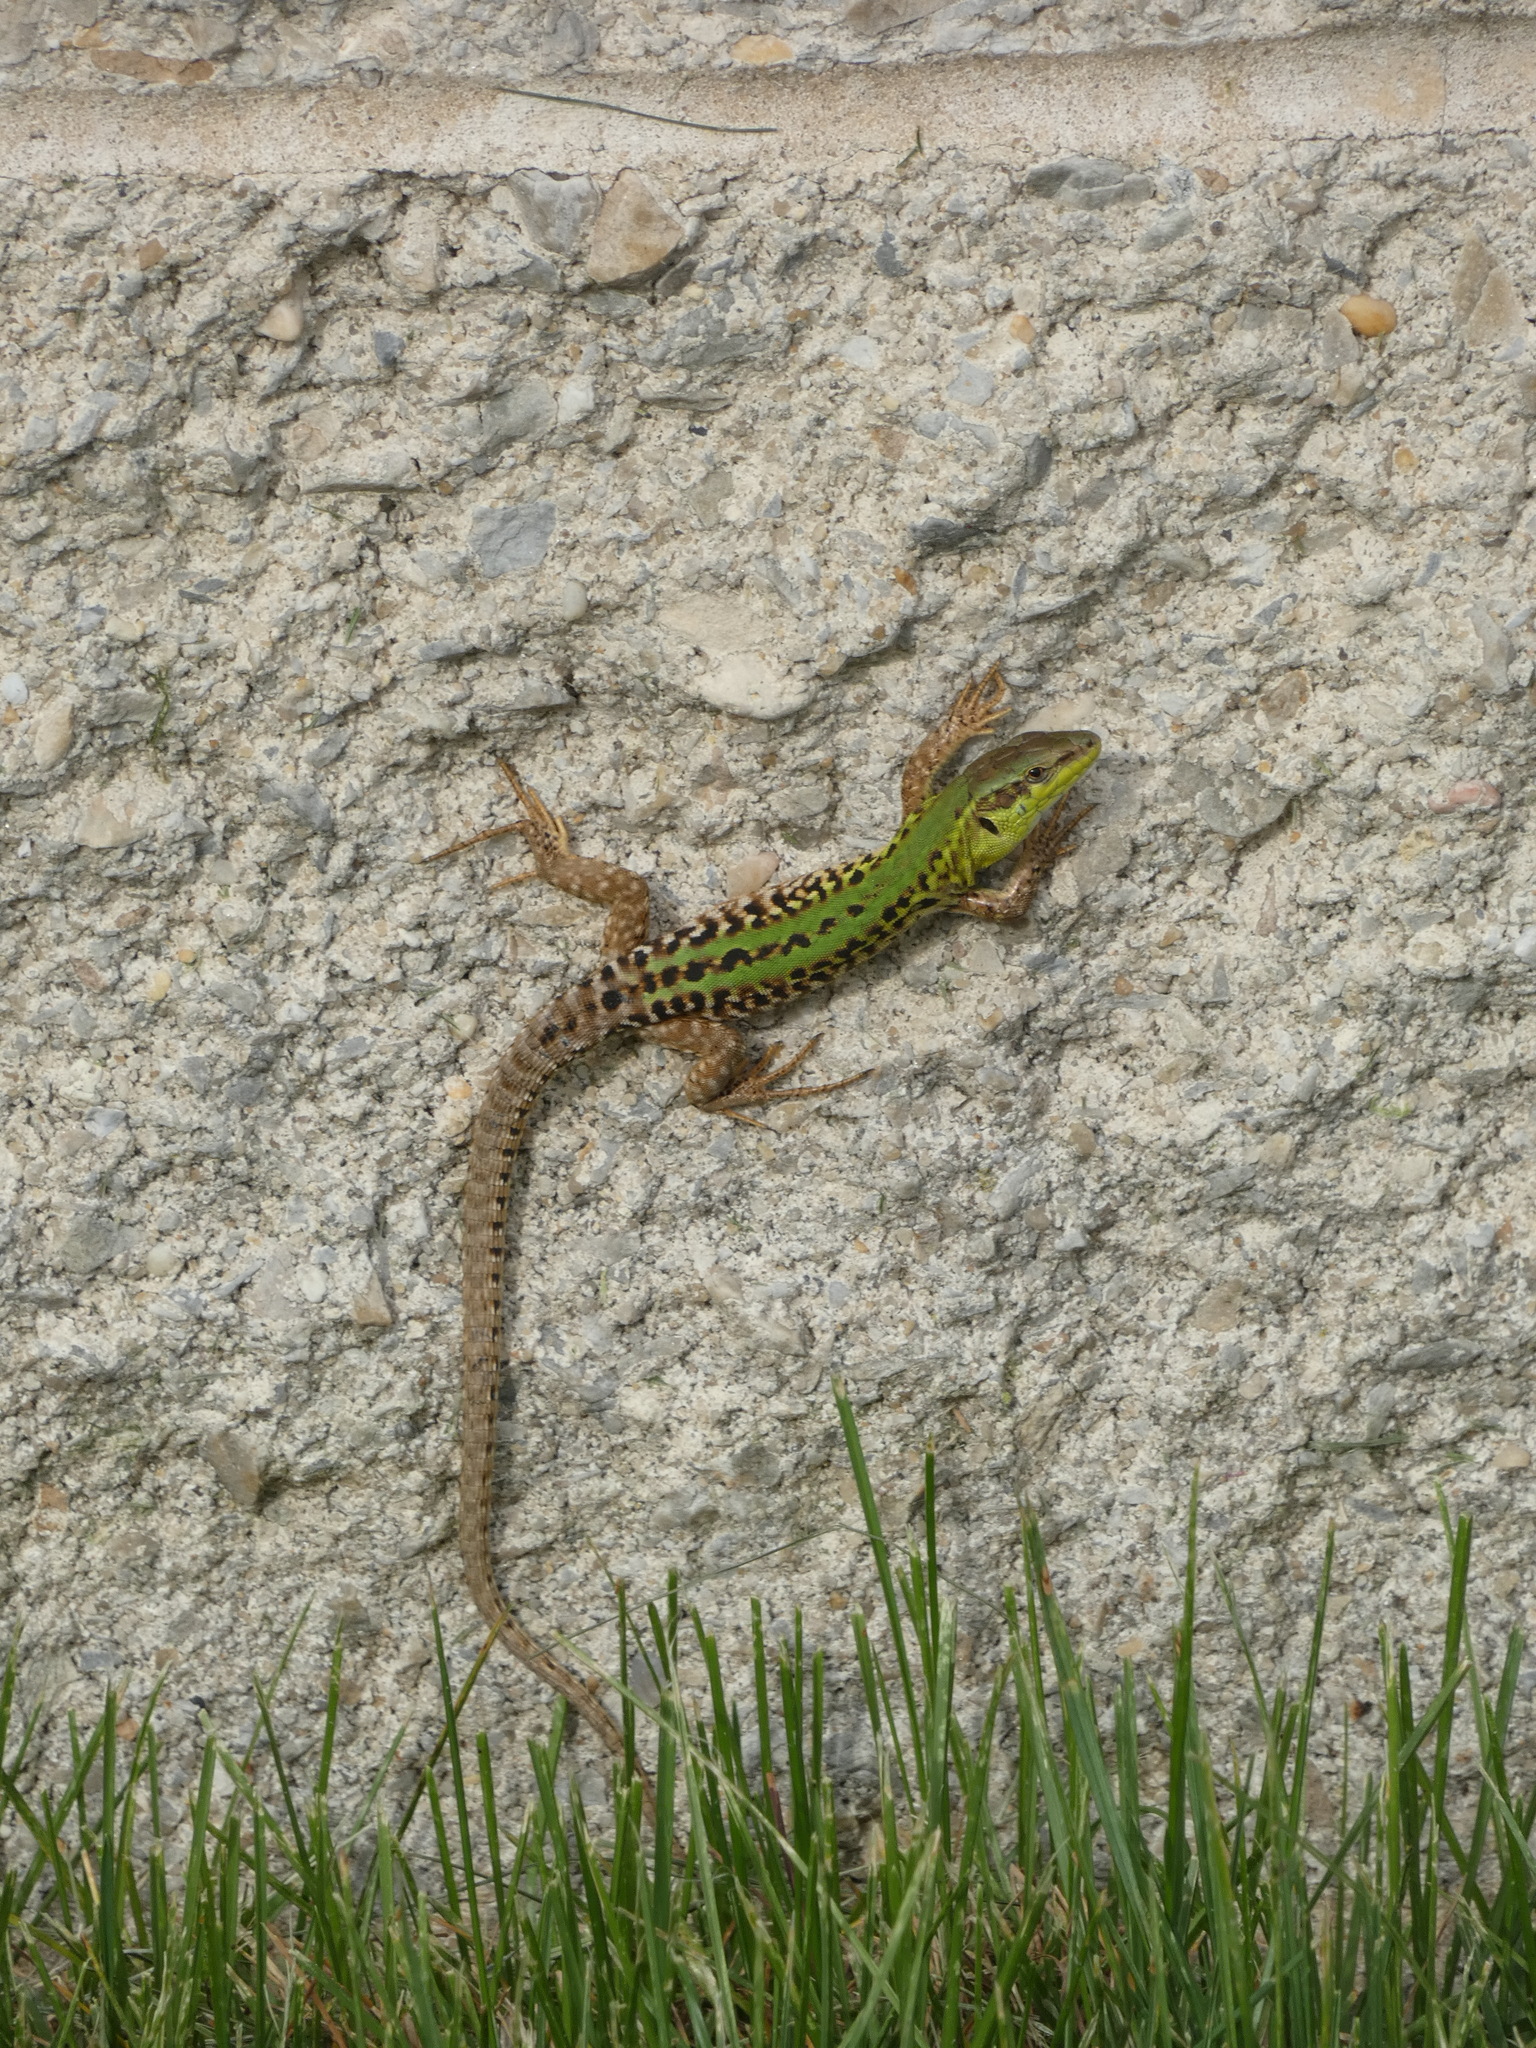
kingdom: Animalia
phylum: Chordata
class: Squamata
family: Lacertidae
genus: Podarcis
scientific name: Podarcis siculus
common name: Italian wall lizard
